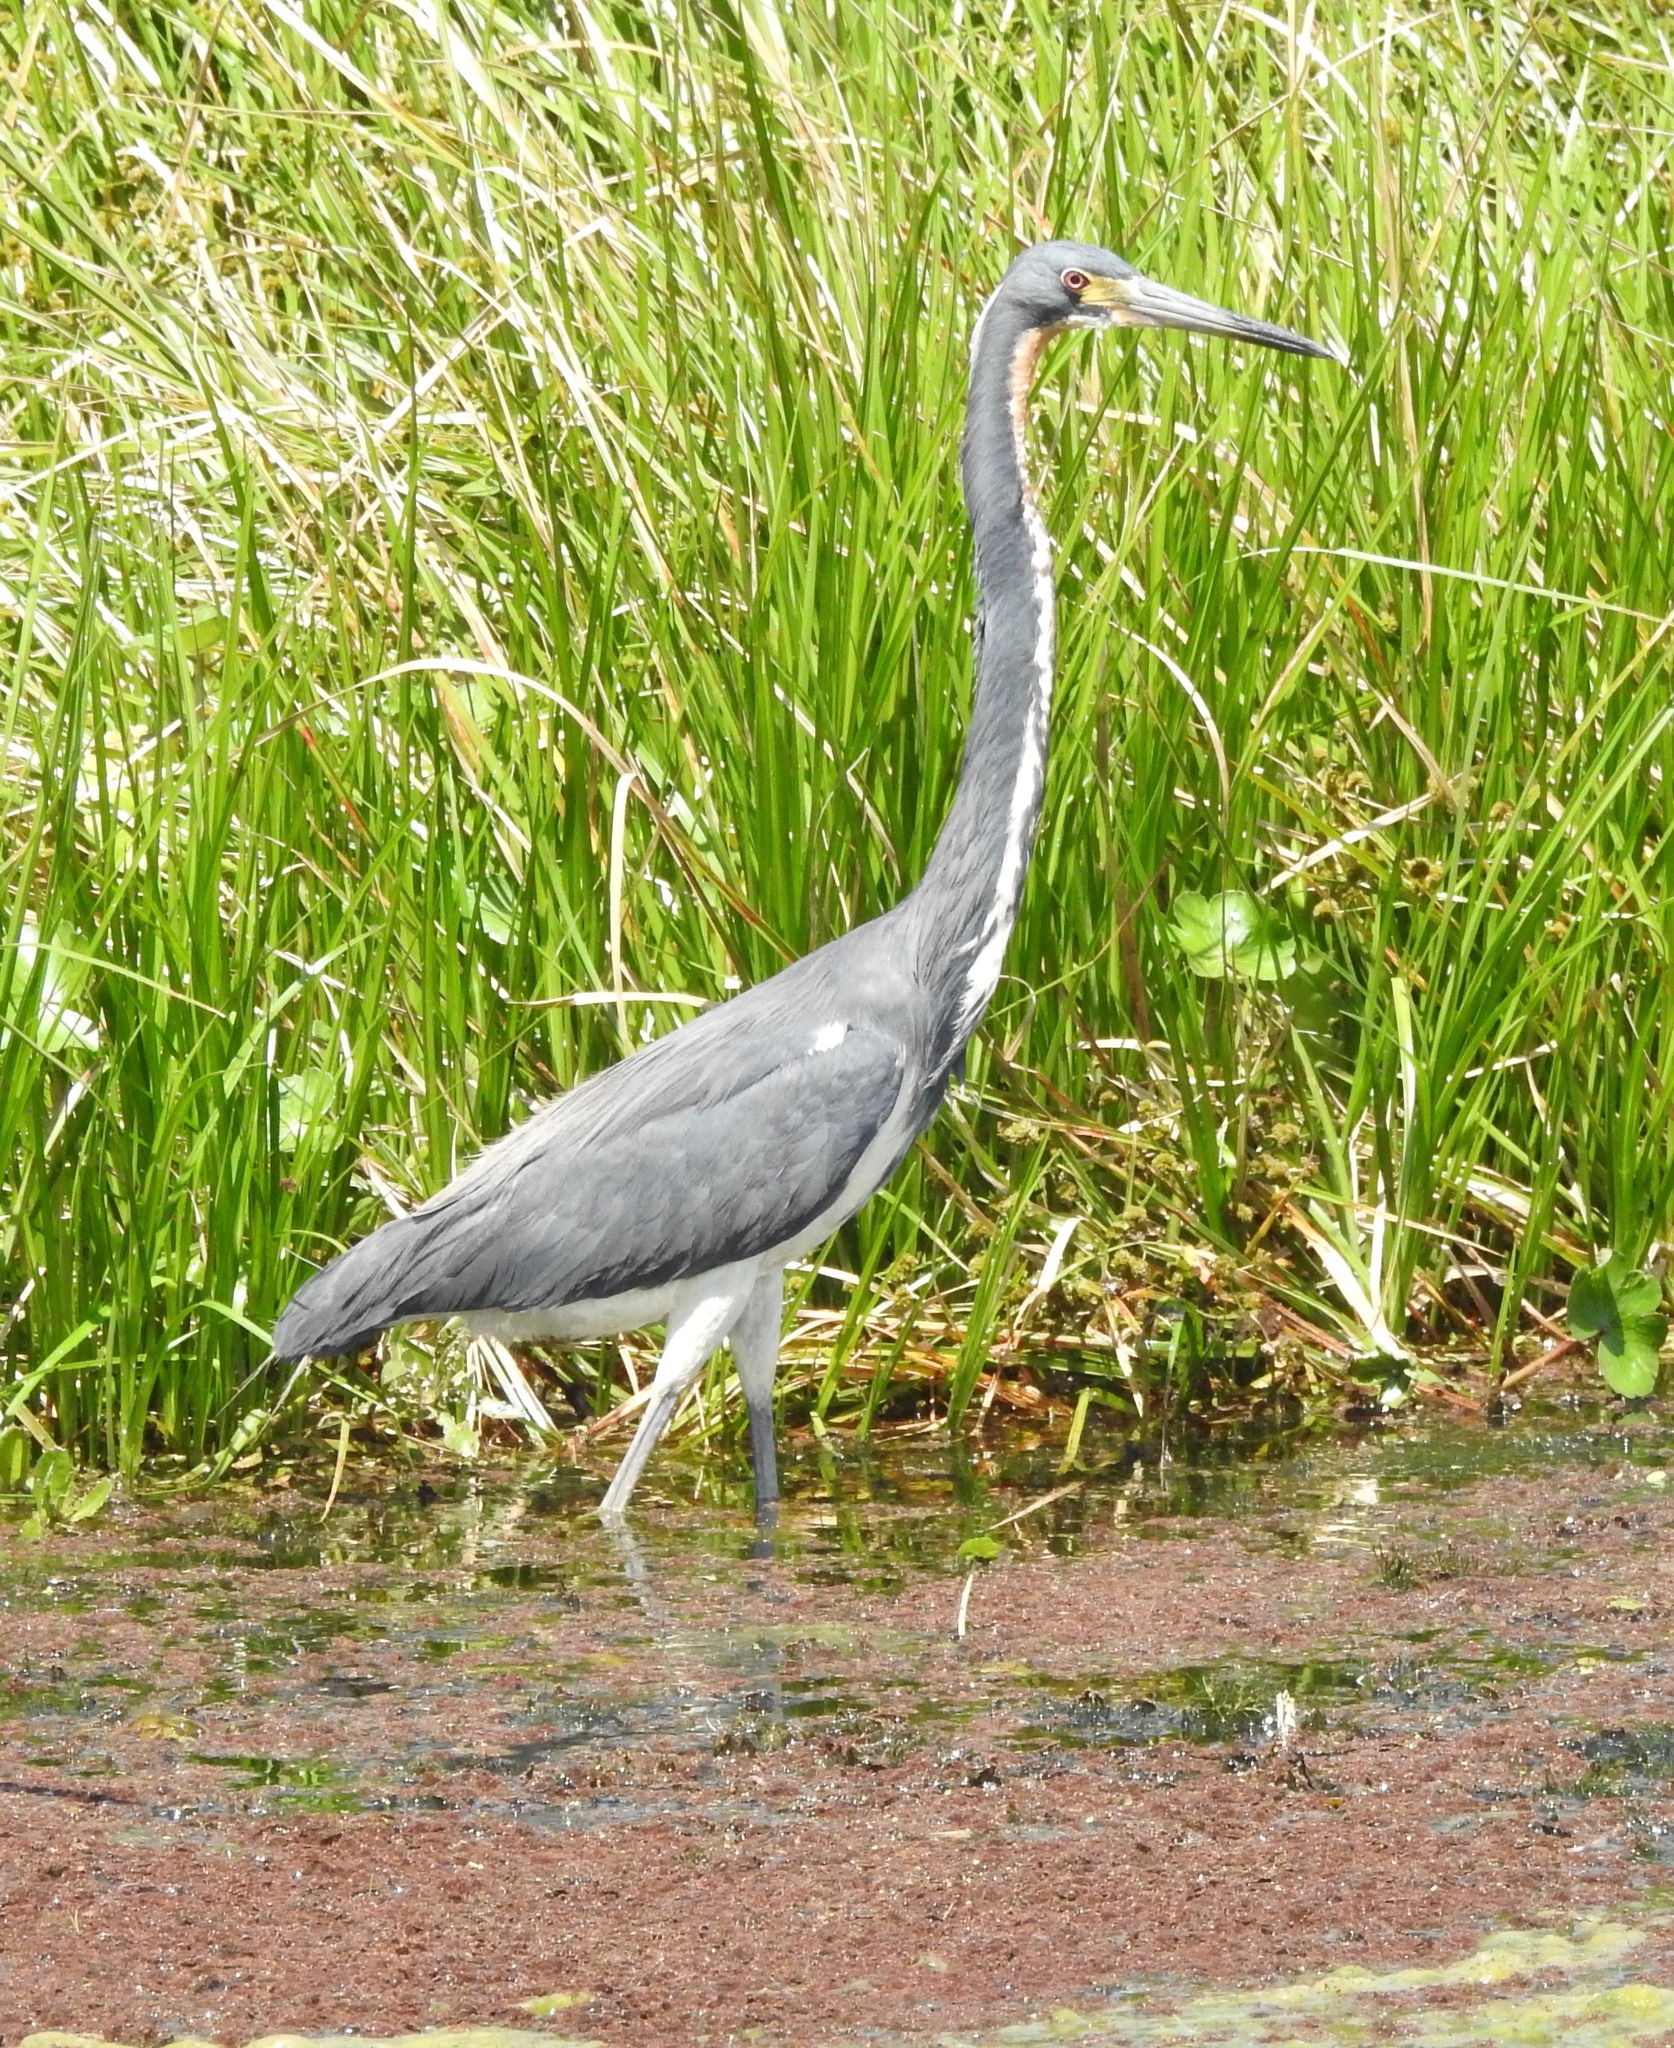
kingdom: Animalia
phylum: Chordata
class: Aves
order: Pelecaniformes
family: Ardeidae
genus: Egretta
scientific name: Egretta tricolor
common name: Tricolored heron
